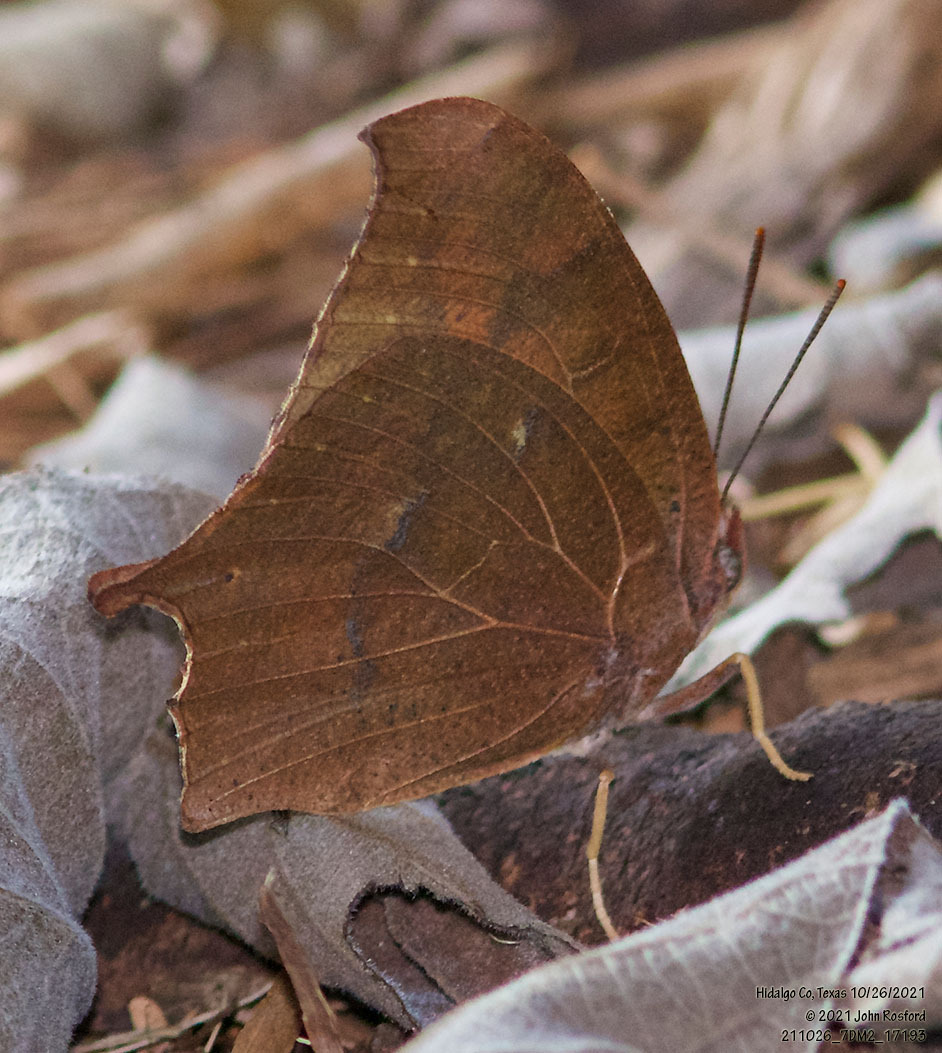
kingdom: Animalia
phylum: Arthropoda
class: Insecta
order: Lepidoptera
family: Nymphalidae
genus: Anaea
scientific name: Anaea andria
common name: Goatweed leafwing
